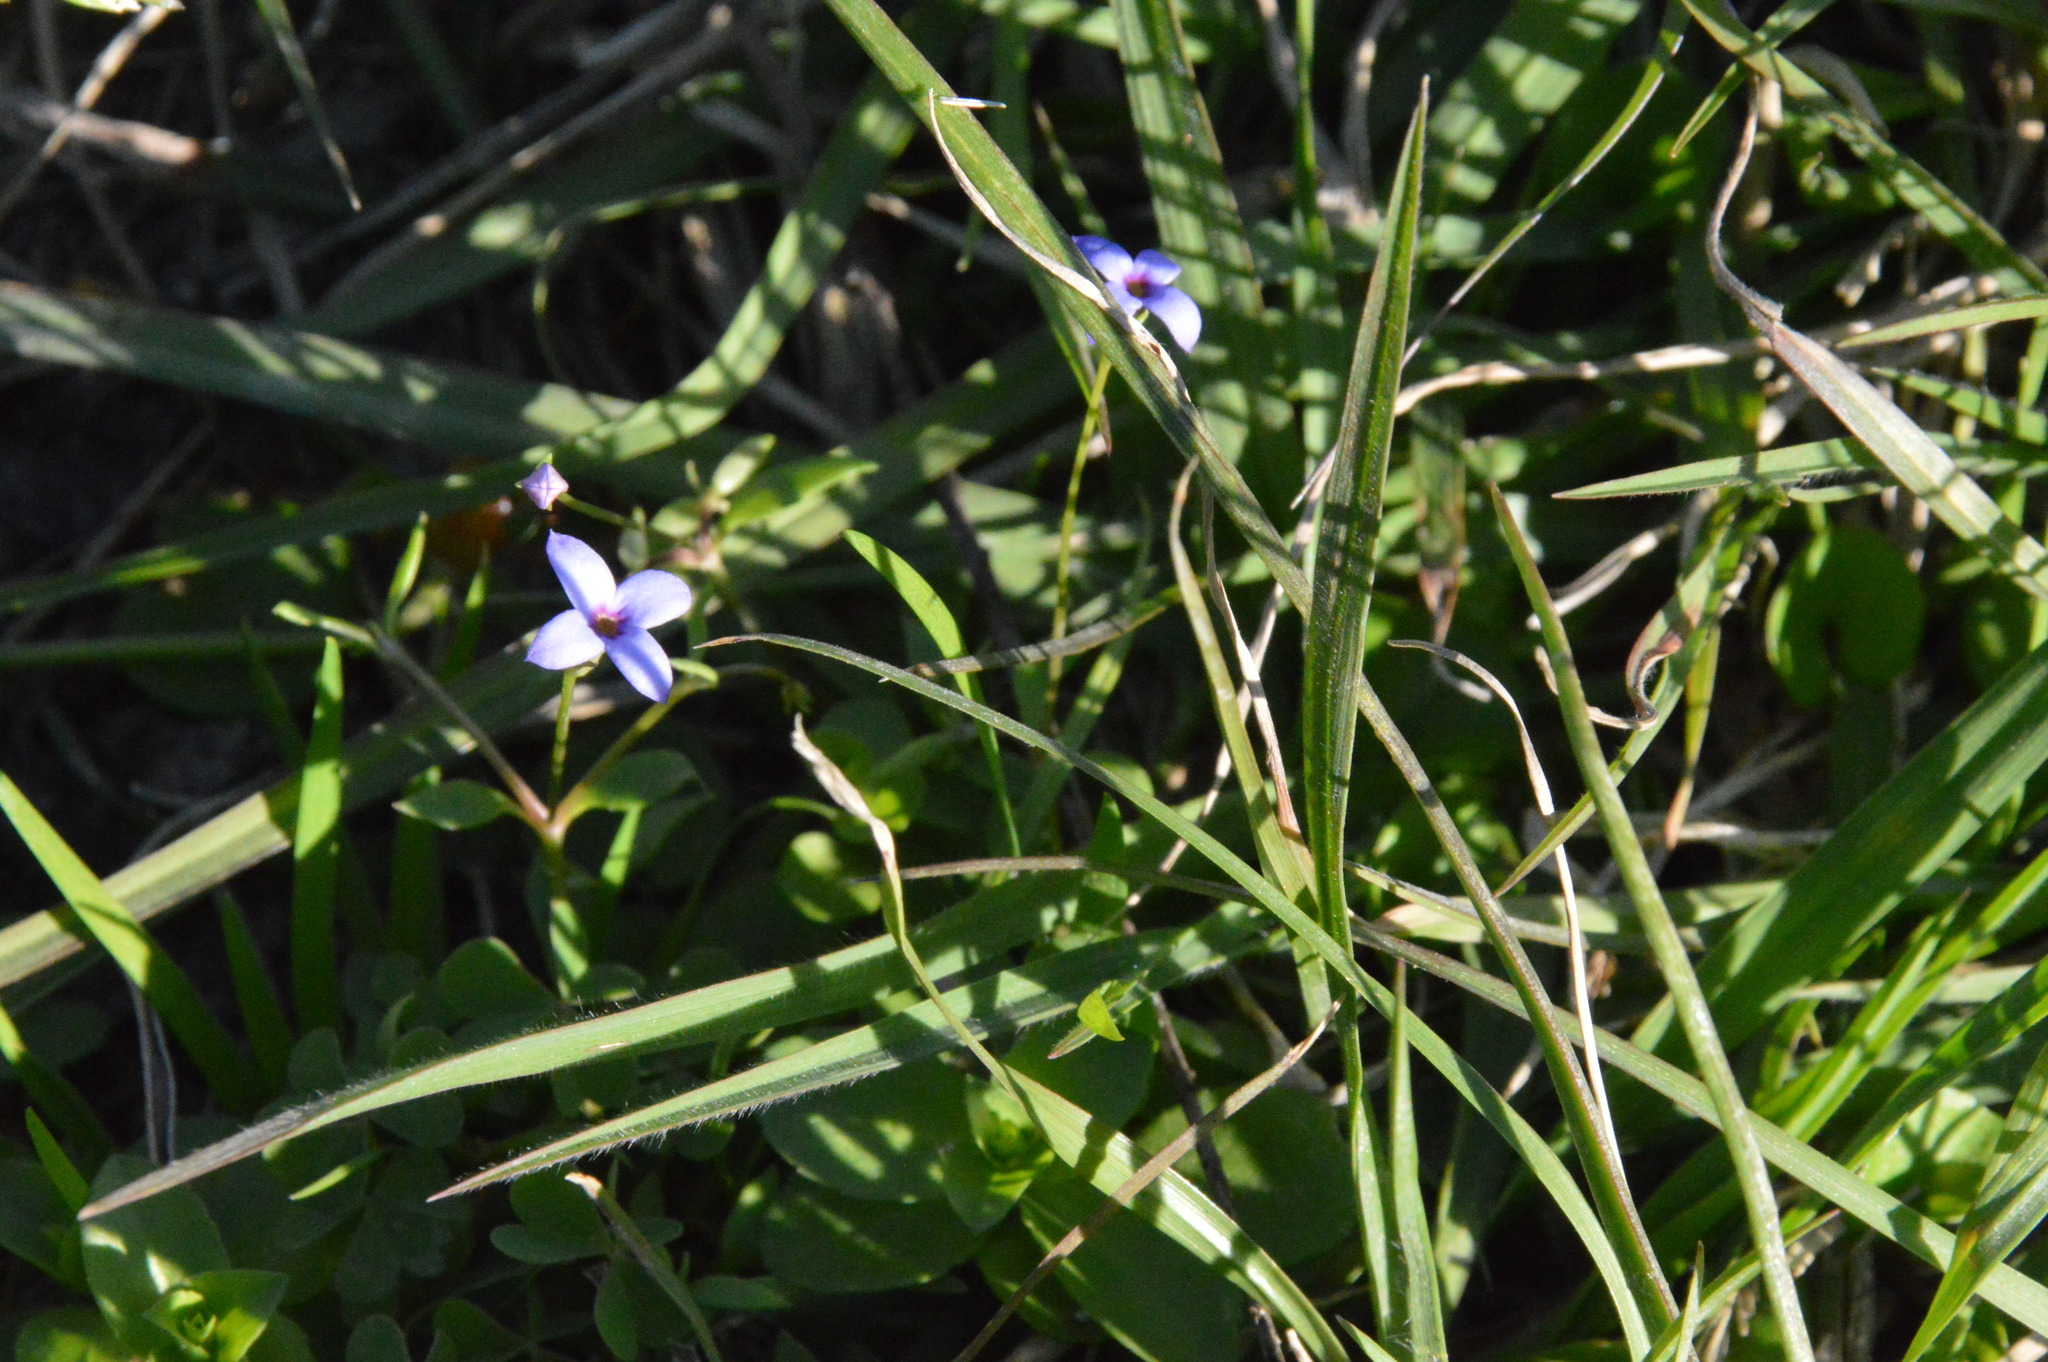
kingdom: Plantae
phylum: Tracheophyta
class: Magnoliopsida
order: Gentianales
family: Rubiaceae
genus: Houstonia
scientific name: Houstonia pusilla
